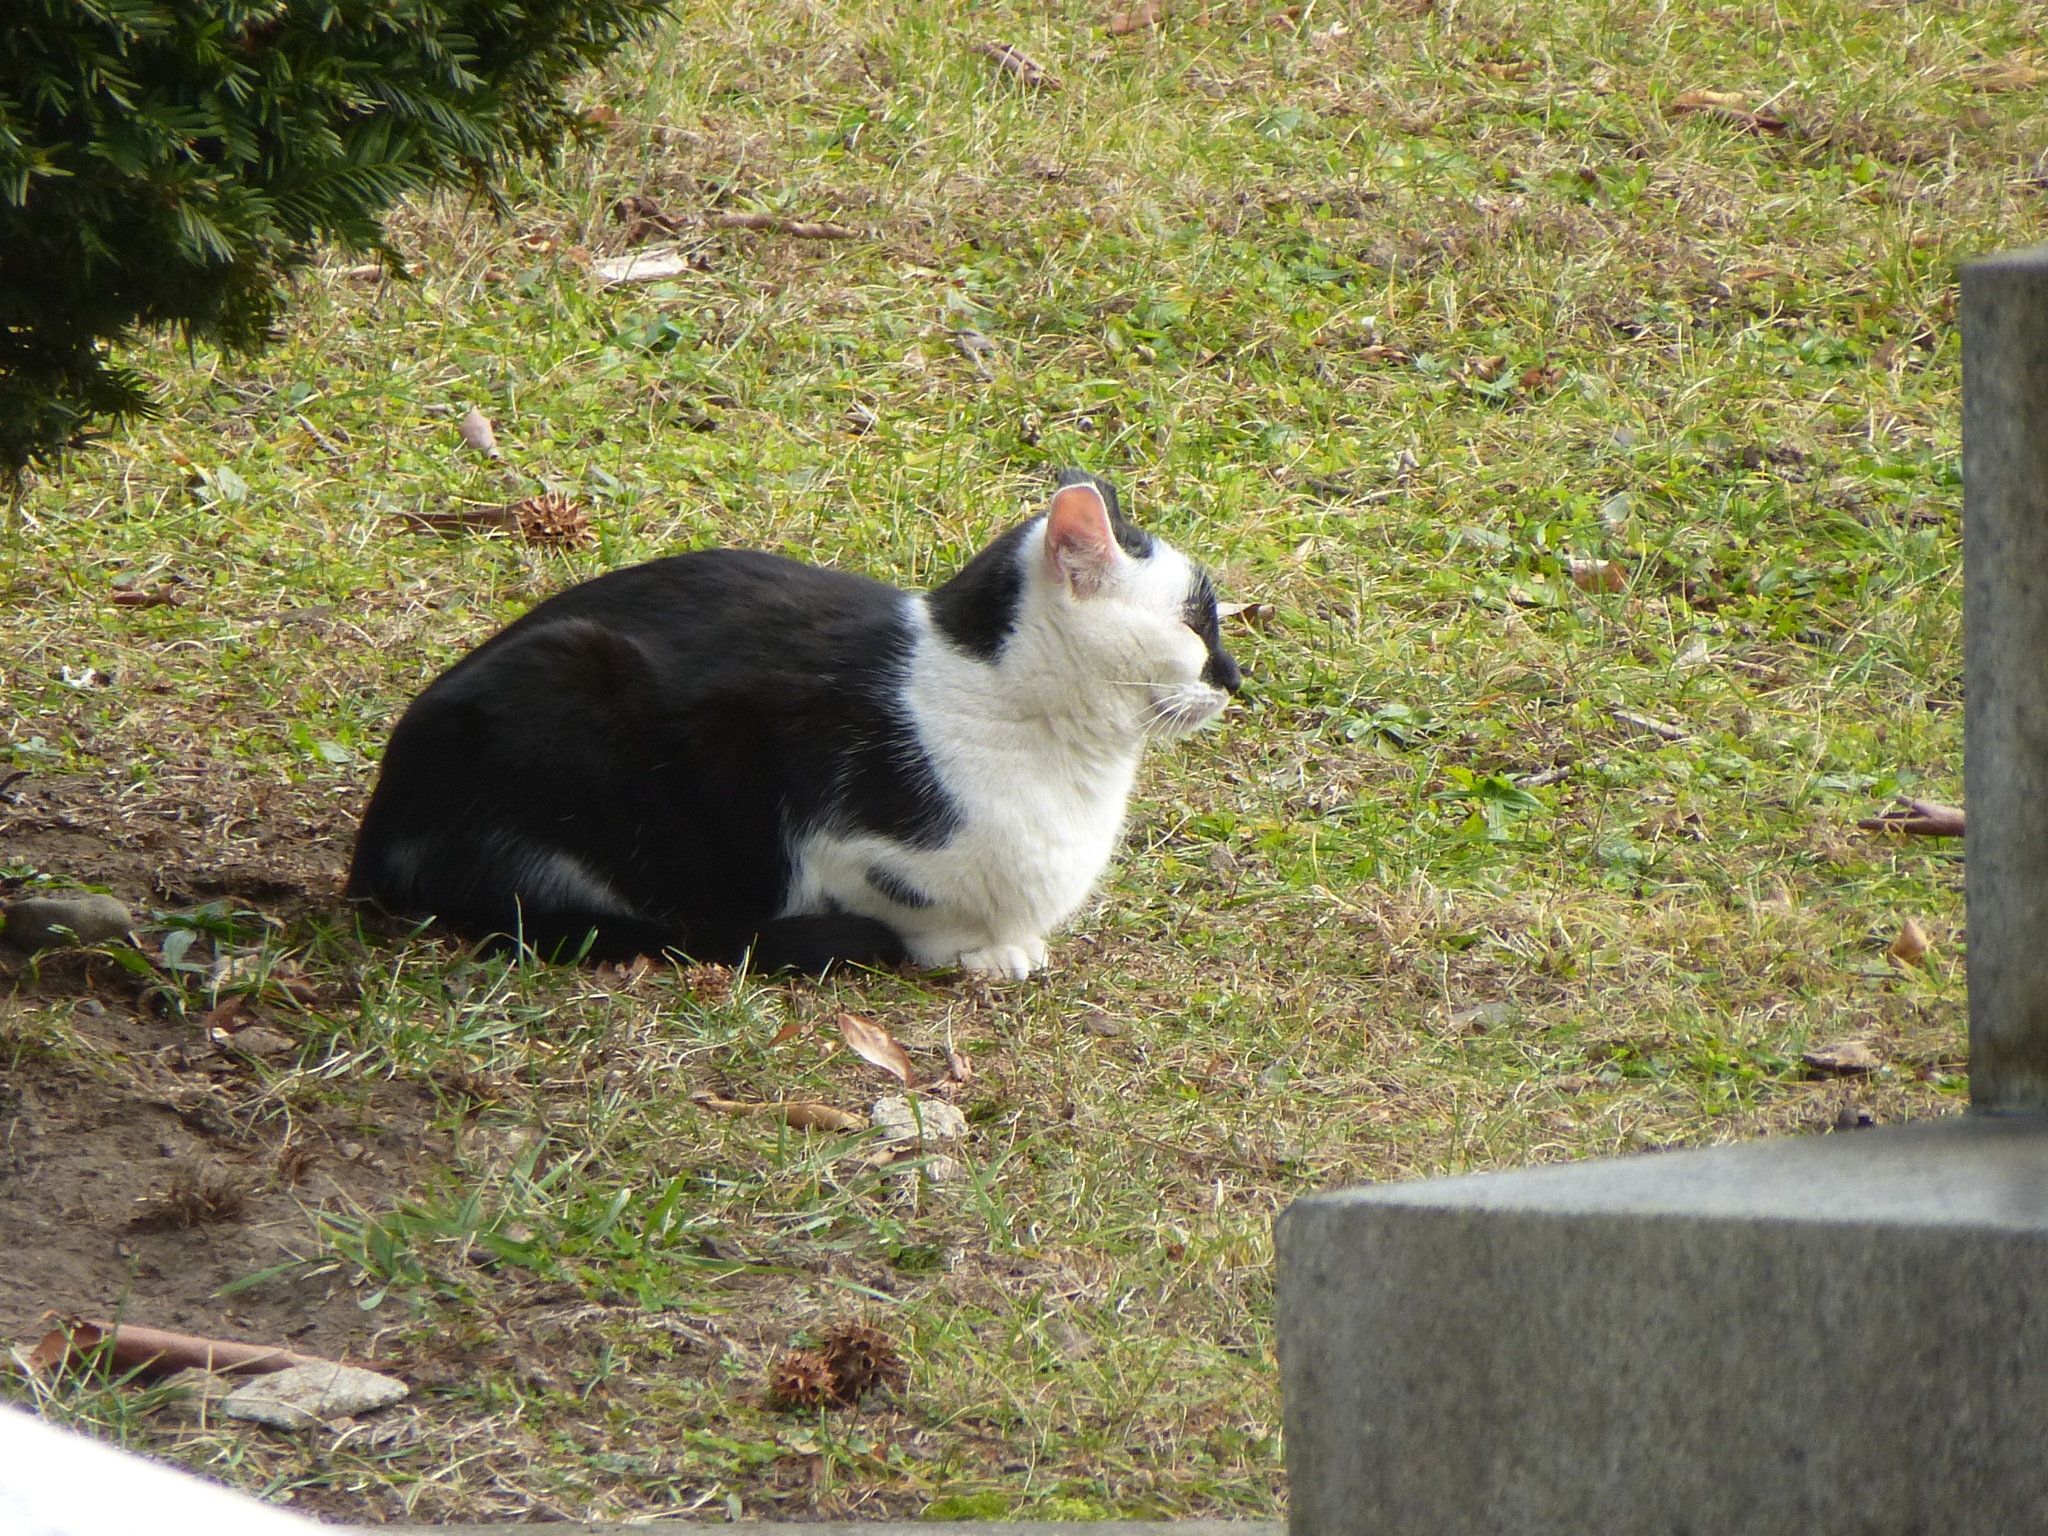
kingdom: Animalia
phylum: Chordata
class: Mammalia
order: Carnivora
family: Felidae
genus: Felis
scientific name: Felis catus
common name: Domestic cat
